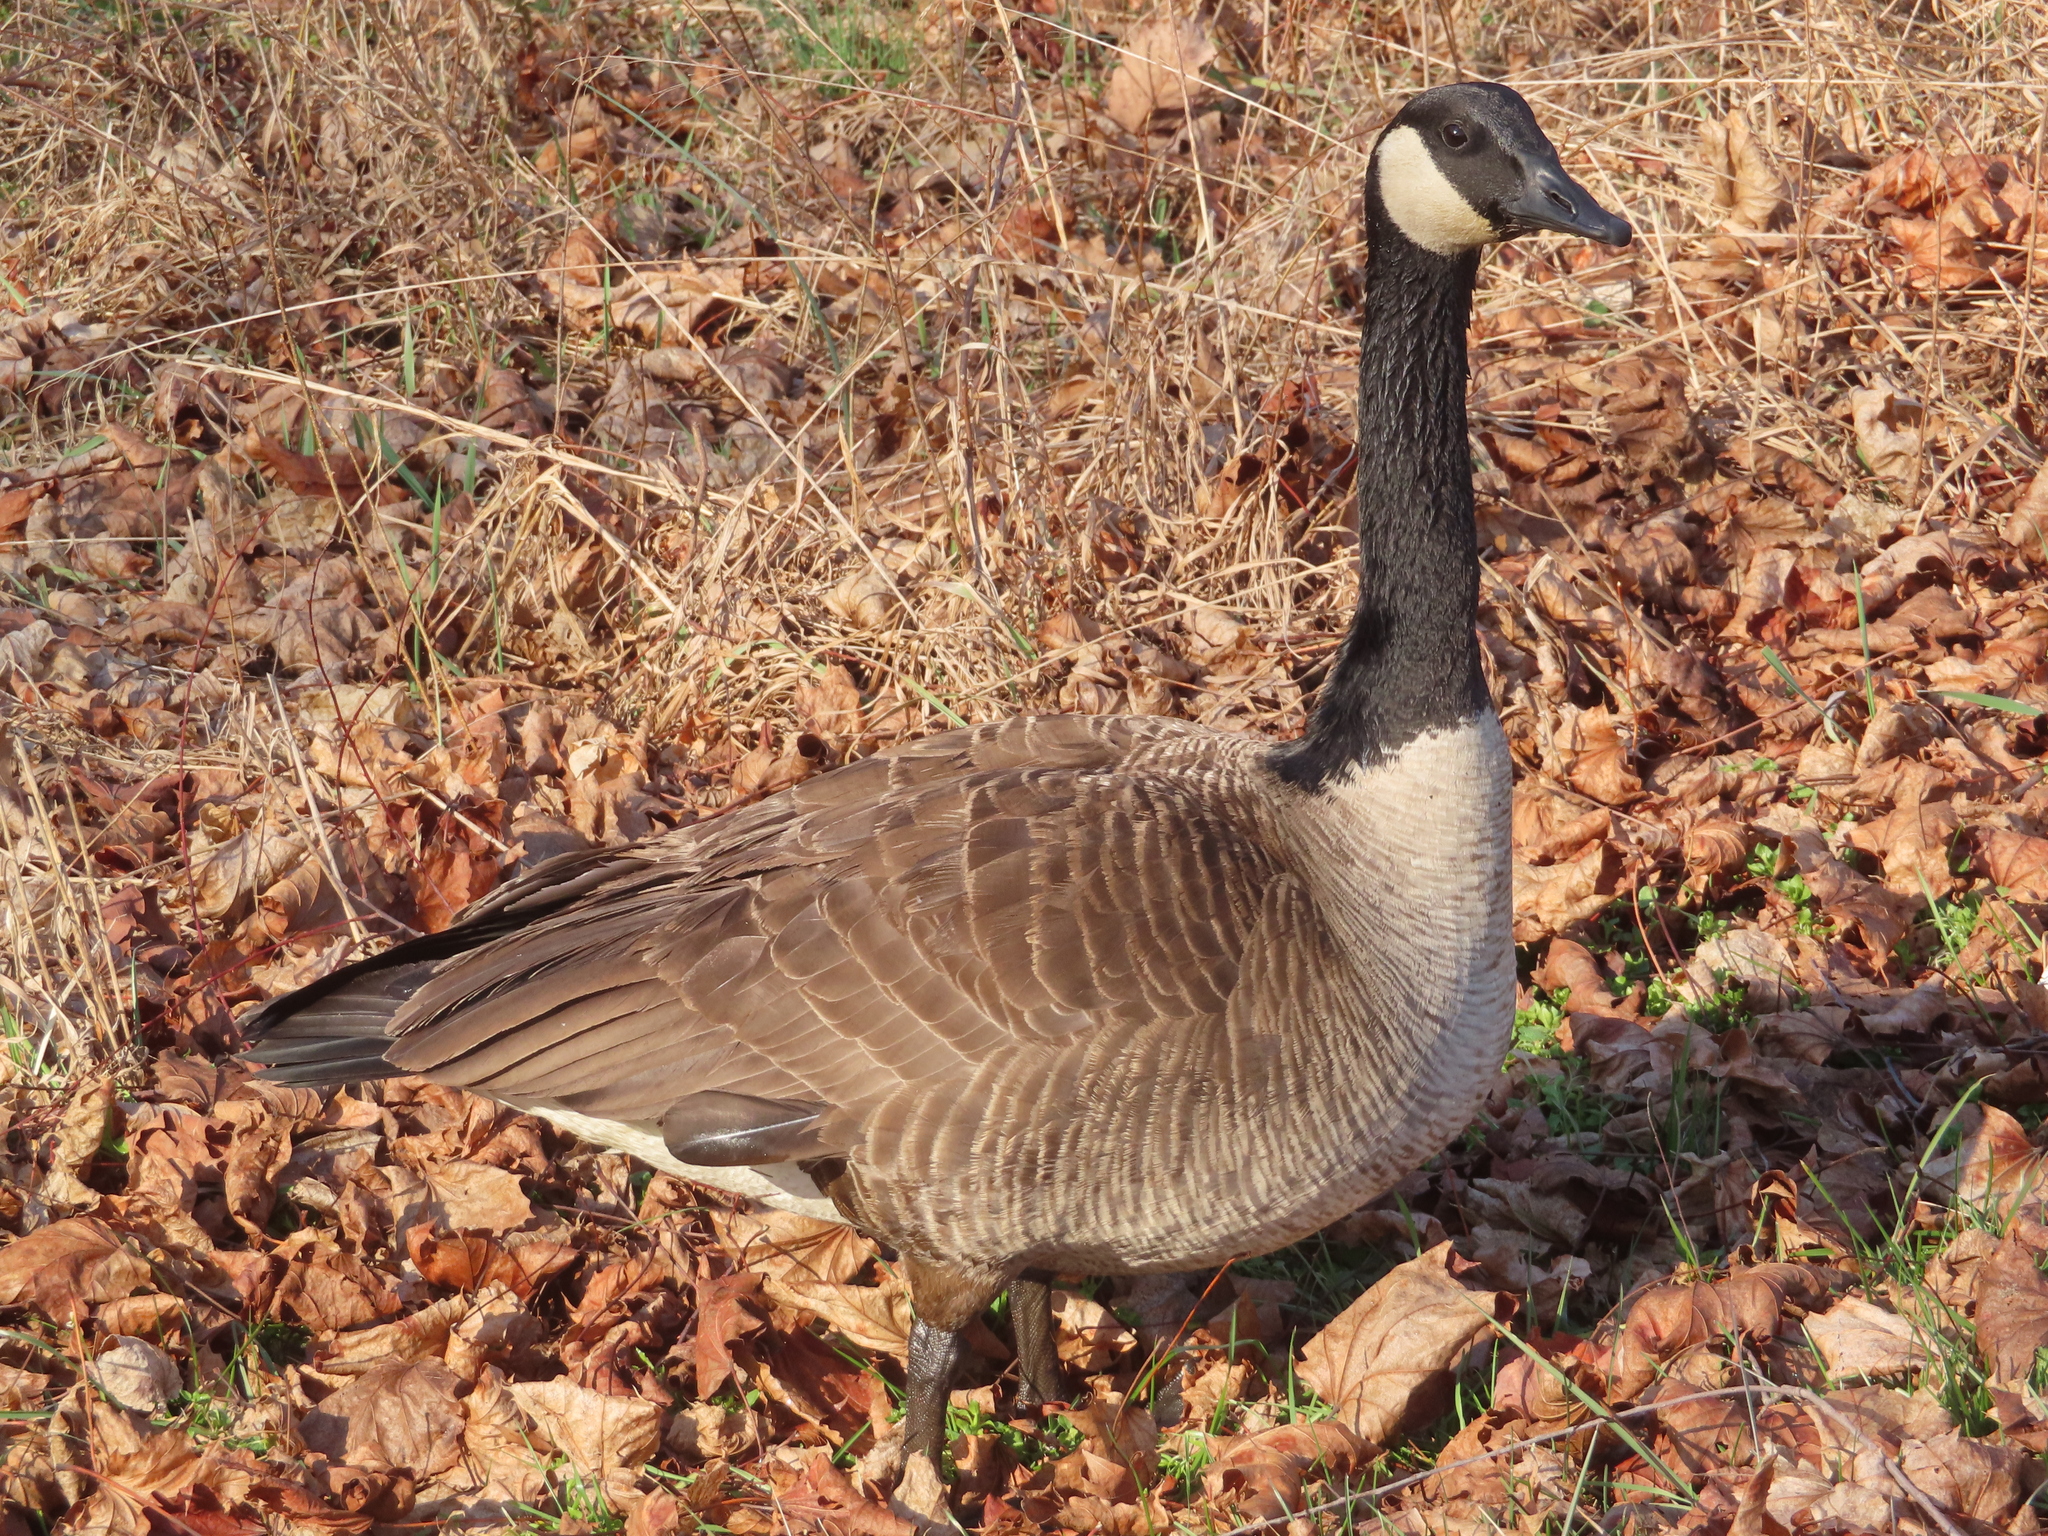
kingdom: Animalia
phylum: Chordata
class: Aves
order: Anseriformes
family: Anatidae
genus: Branta
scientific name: Branta canadensis
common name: Canada goose
